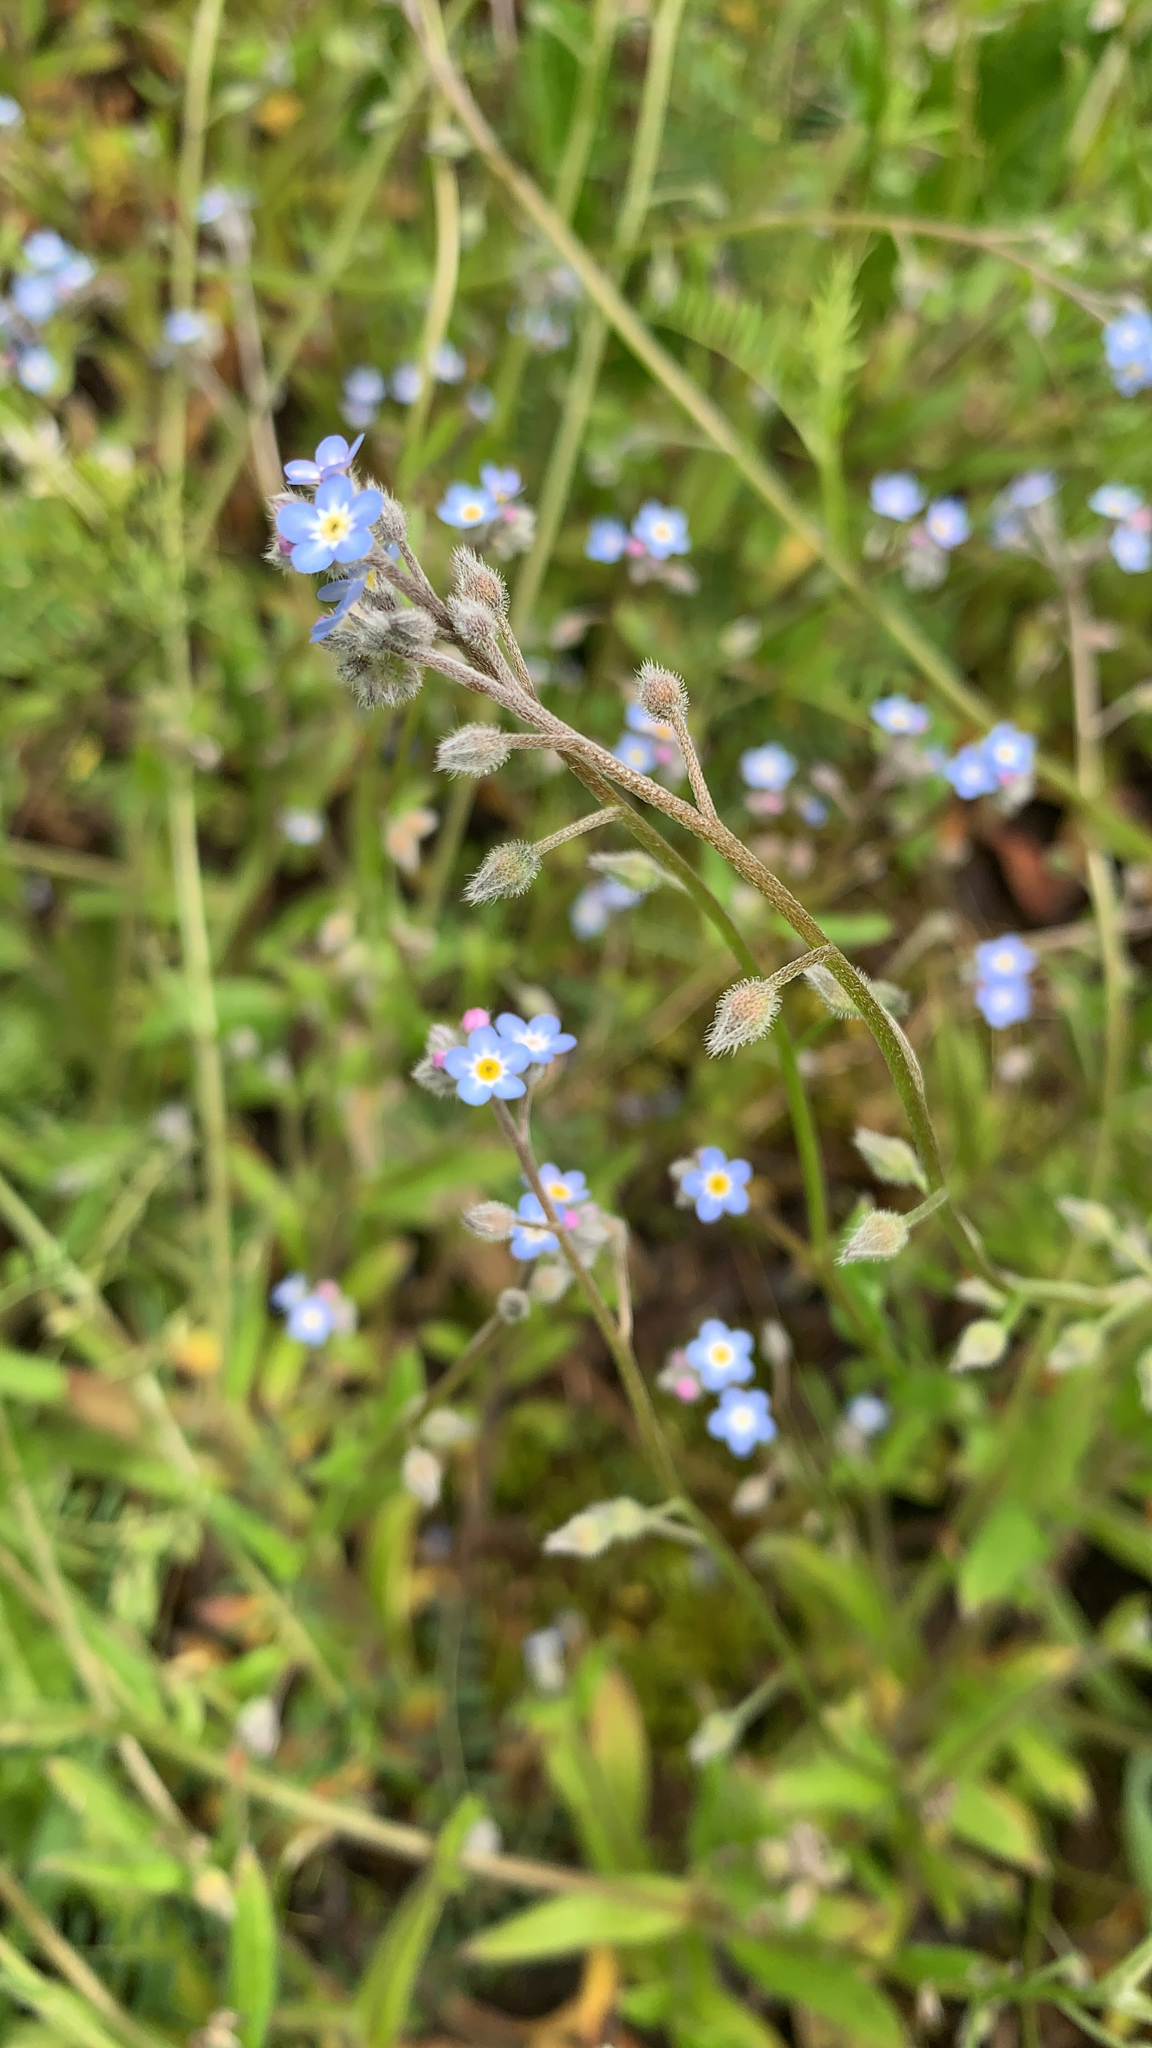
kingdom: Plantae
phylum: Tracheophyta
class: Magnoliopsida
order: Boraginales
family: Boraginaceae
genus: Myosotis
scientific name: Myosotis arvensis
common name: Field forget-me-not
